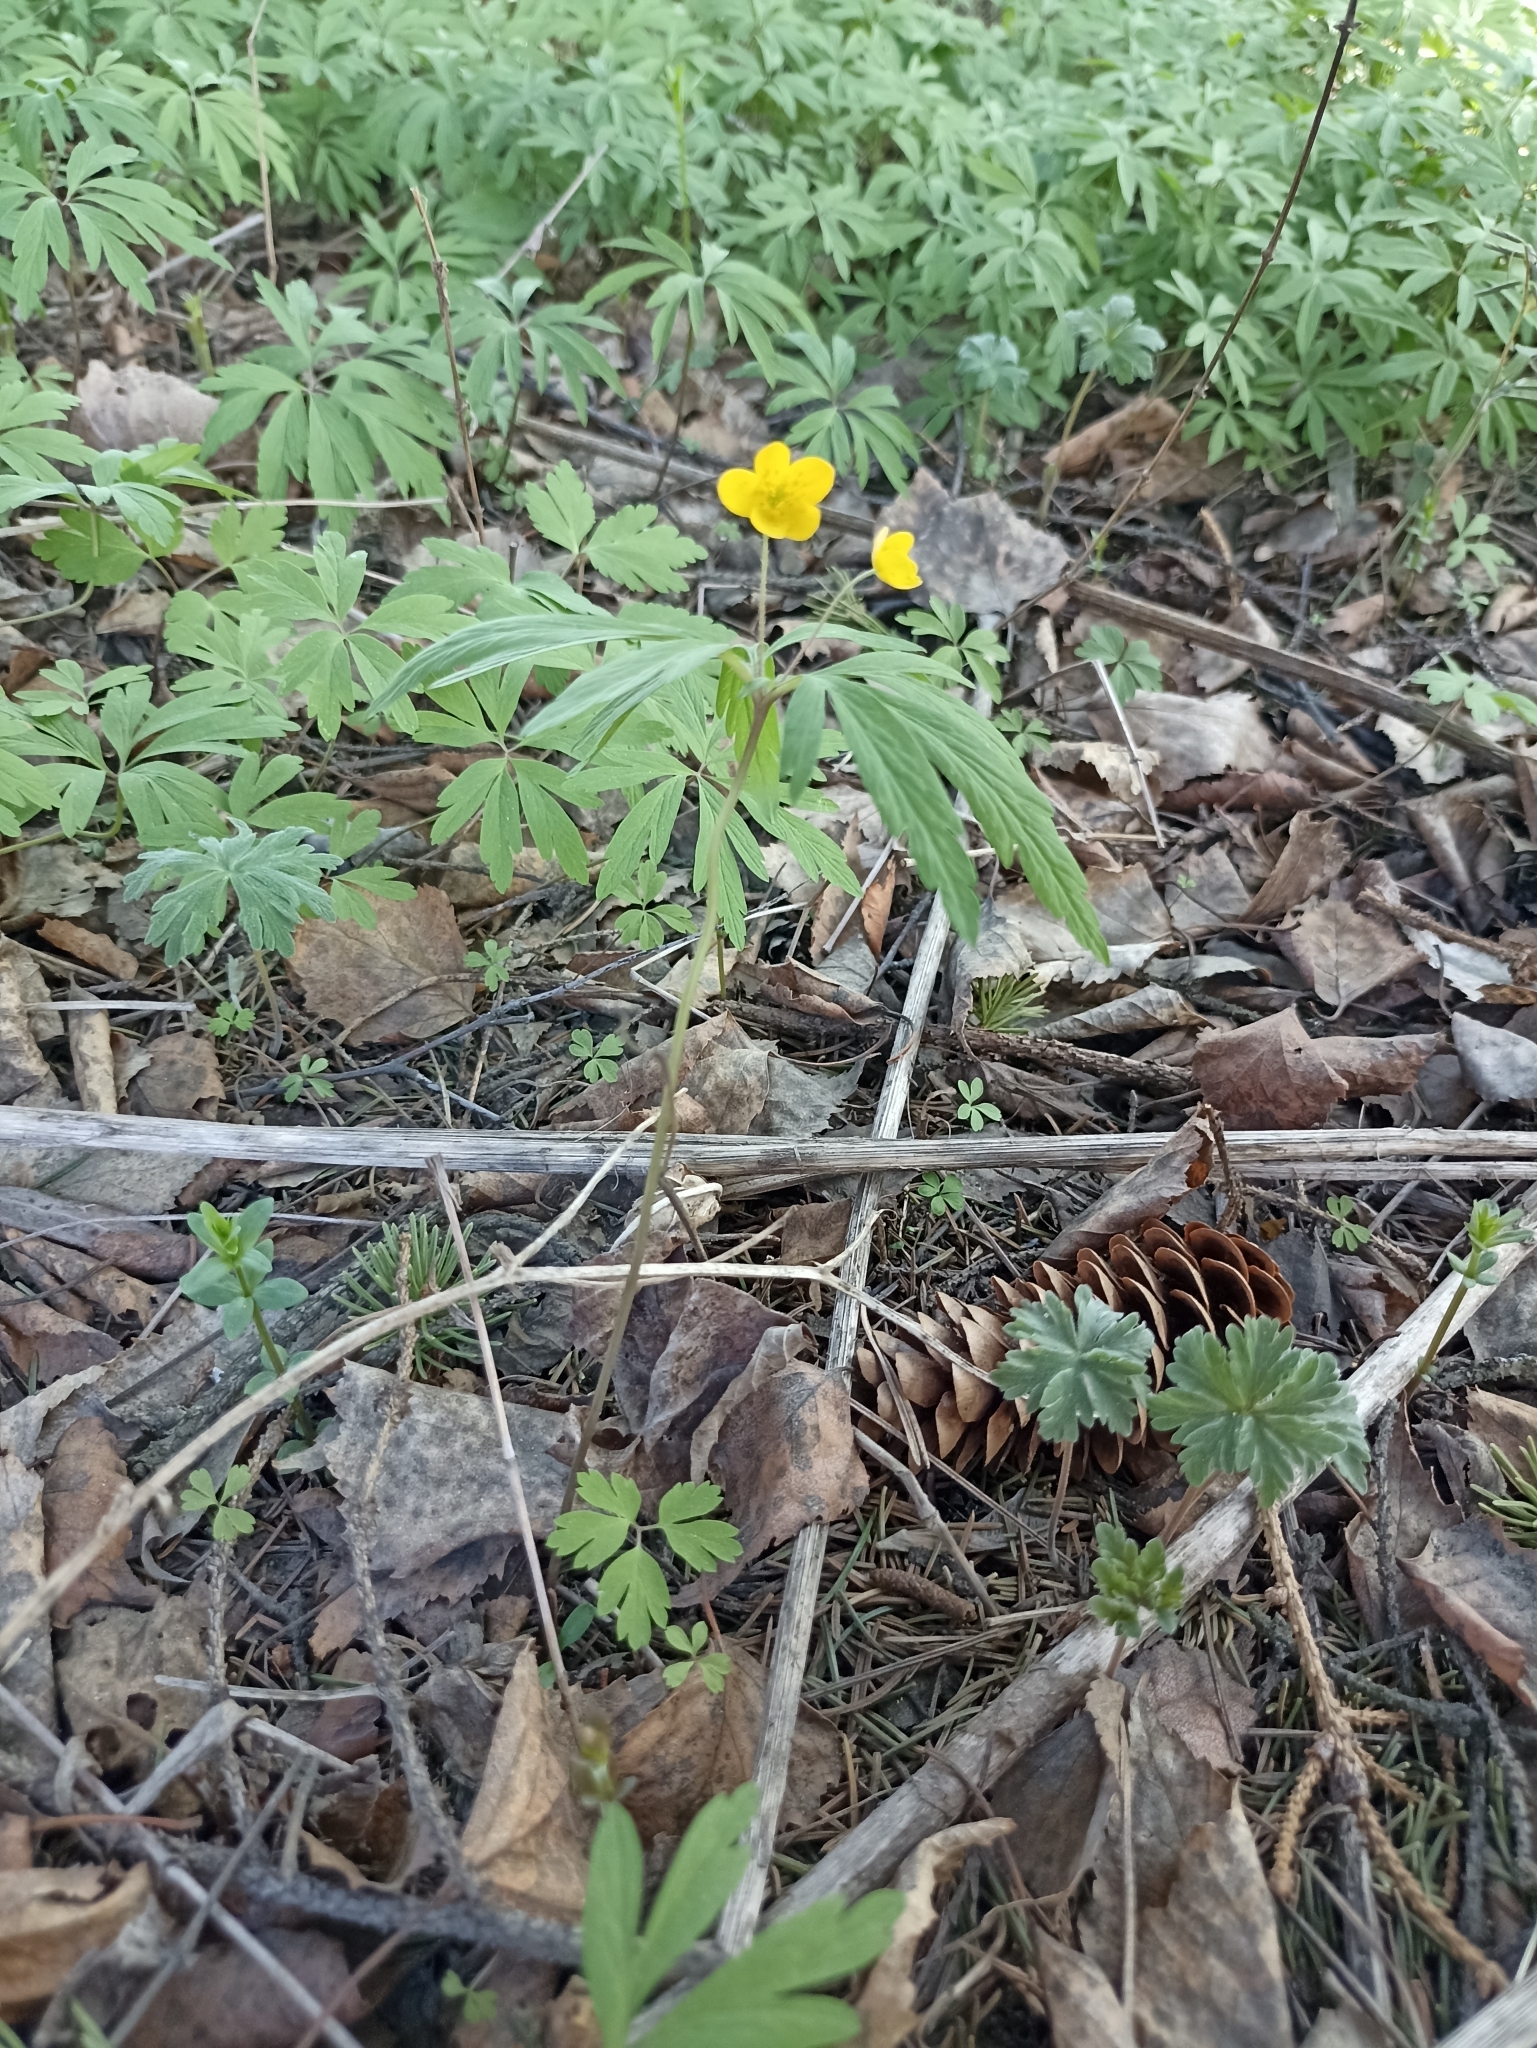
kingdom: Plantae
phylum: Tracheophyta
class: Magnoliopsida
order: Ranunculales
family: Ranunculaceae
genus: Anemone
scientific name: Anemone jenisseensis
